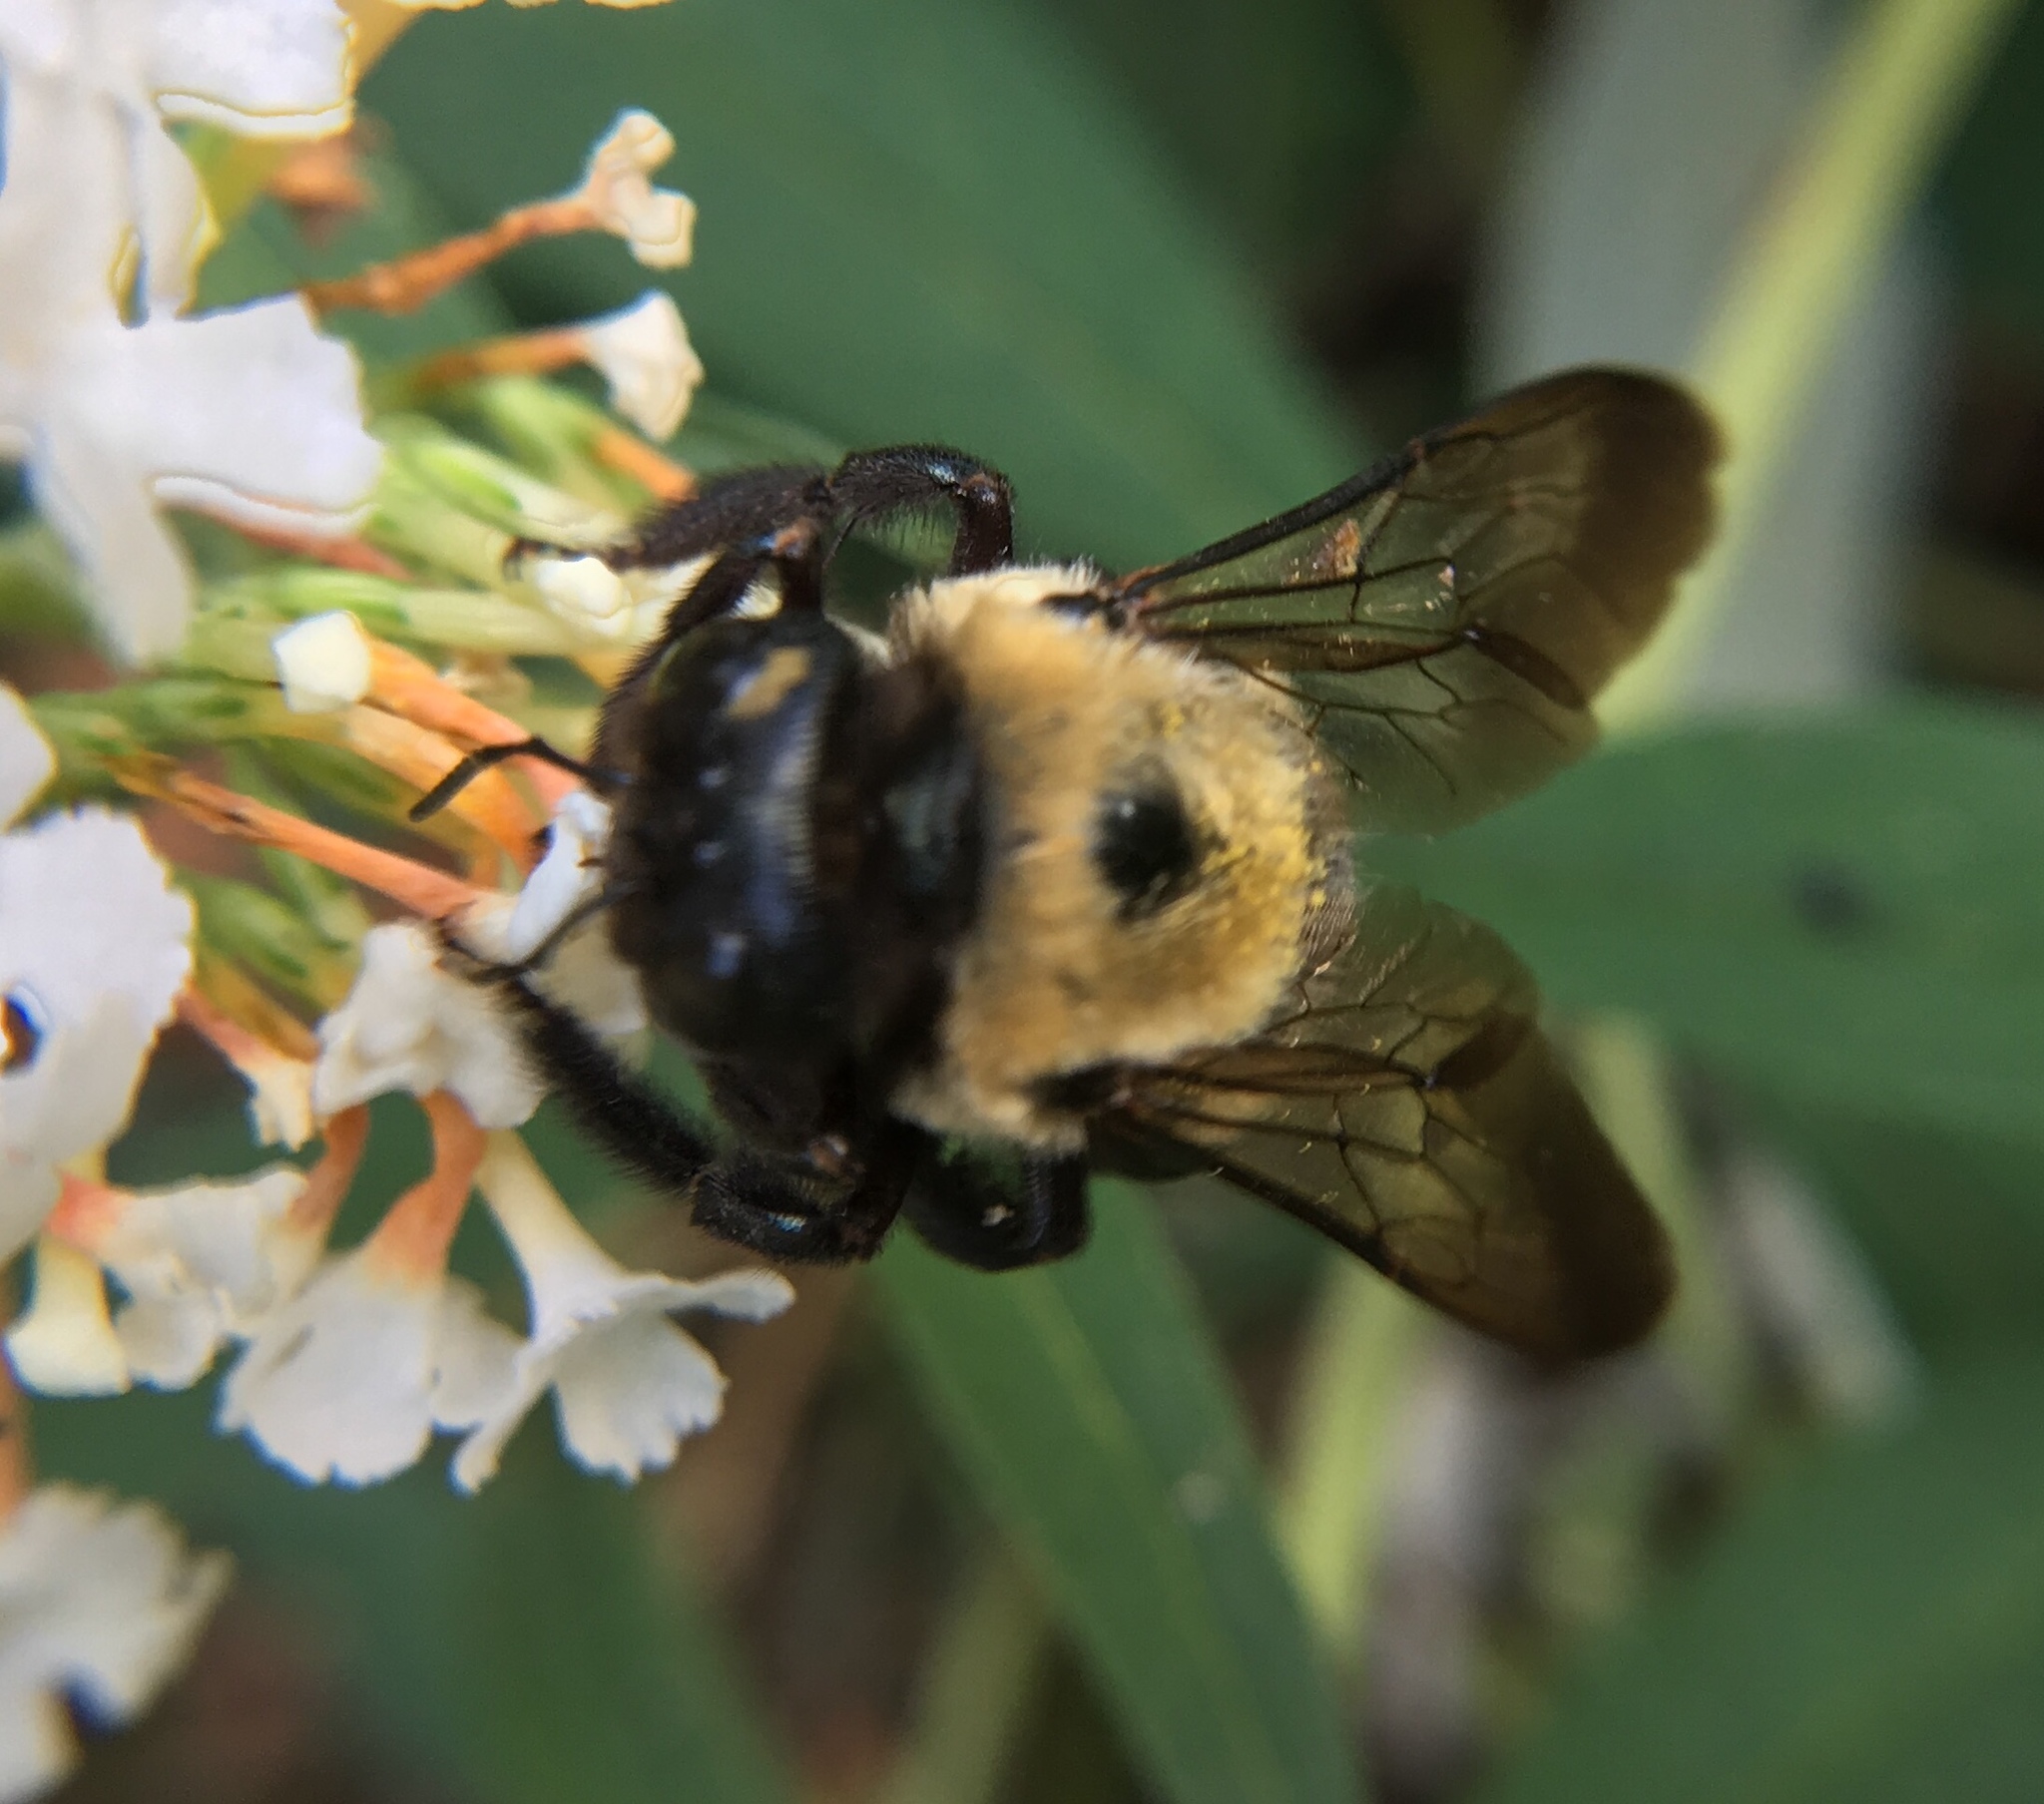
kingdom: Animalia
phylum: Arthropoda
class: Insecta
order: Hymenoptera
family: Apidae
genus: Xylocopa
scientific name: Xylocopa virginica
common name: Carpenter bee
